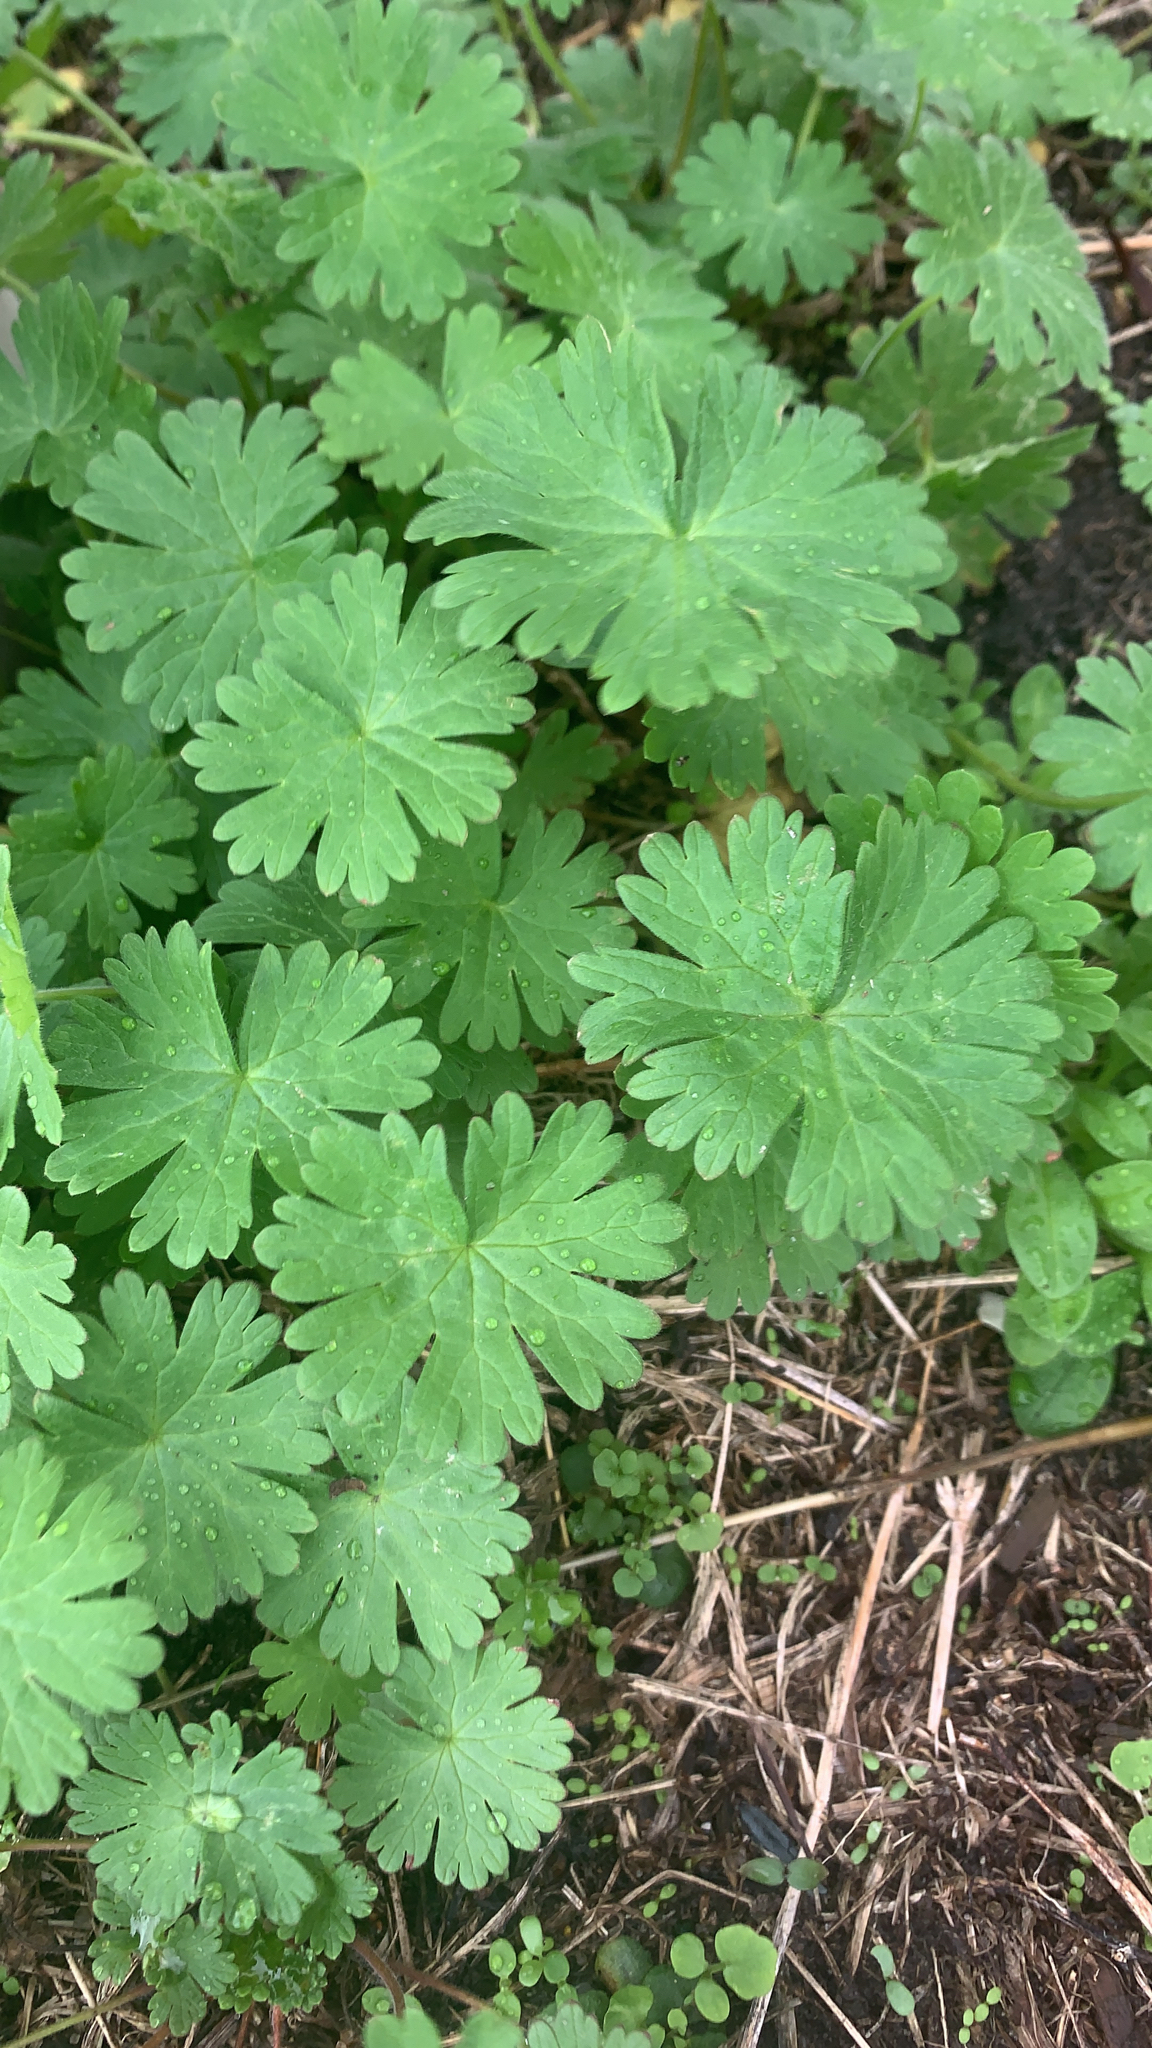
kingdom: Plantae
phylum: Tracheophyta
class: Magnoliopsida
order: Geraniales
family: Geraniaceae
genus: Geranium
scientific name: Geranium molle
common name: Dove's-foot crane's-bill
